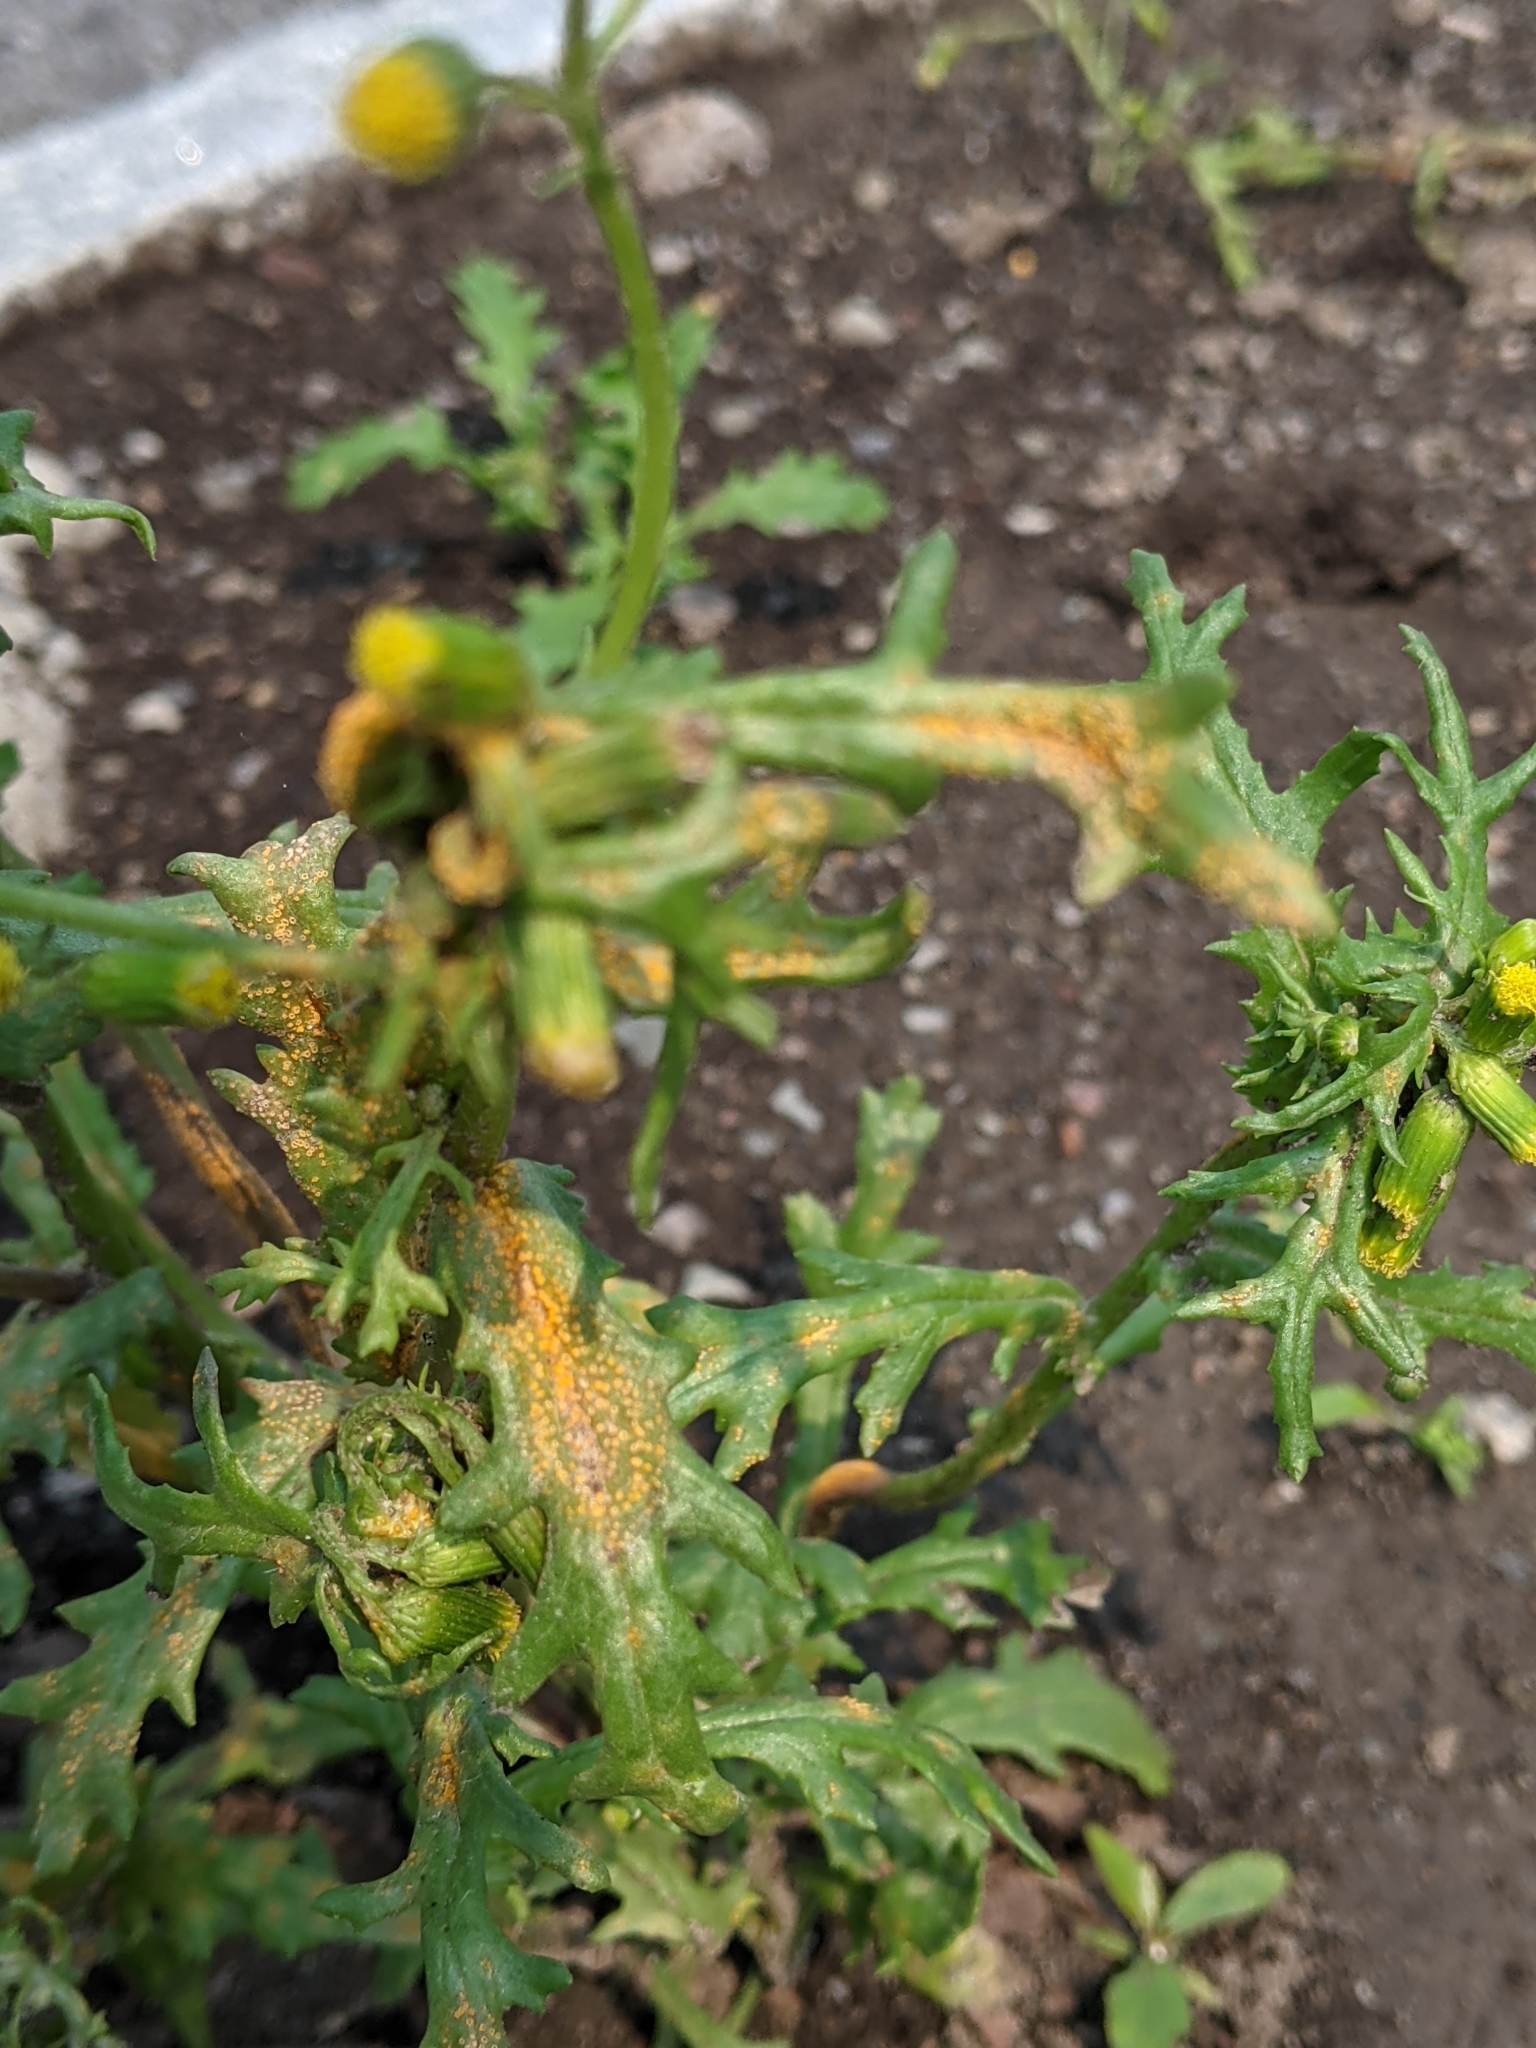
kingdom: Fungi
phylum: Basidiomycota
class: Pucciniomycetes
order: Pucciniales
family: Pucciniaceae
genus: Puccinia
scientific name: Puccinia lagenophorae
